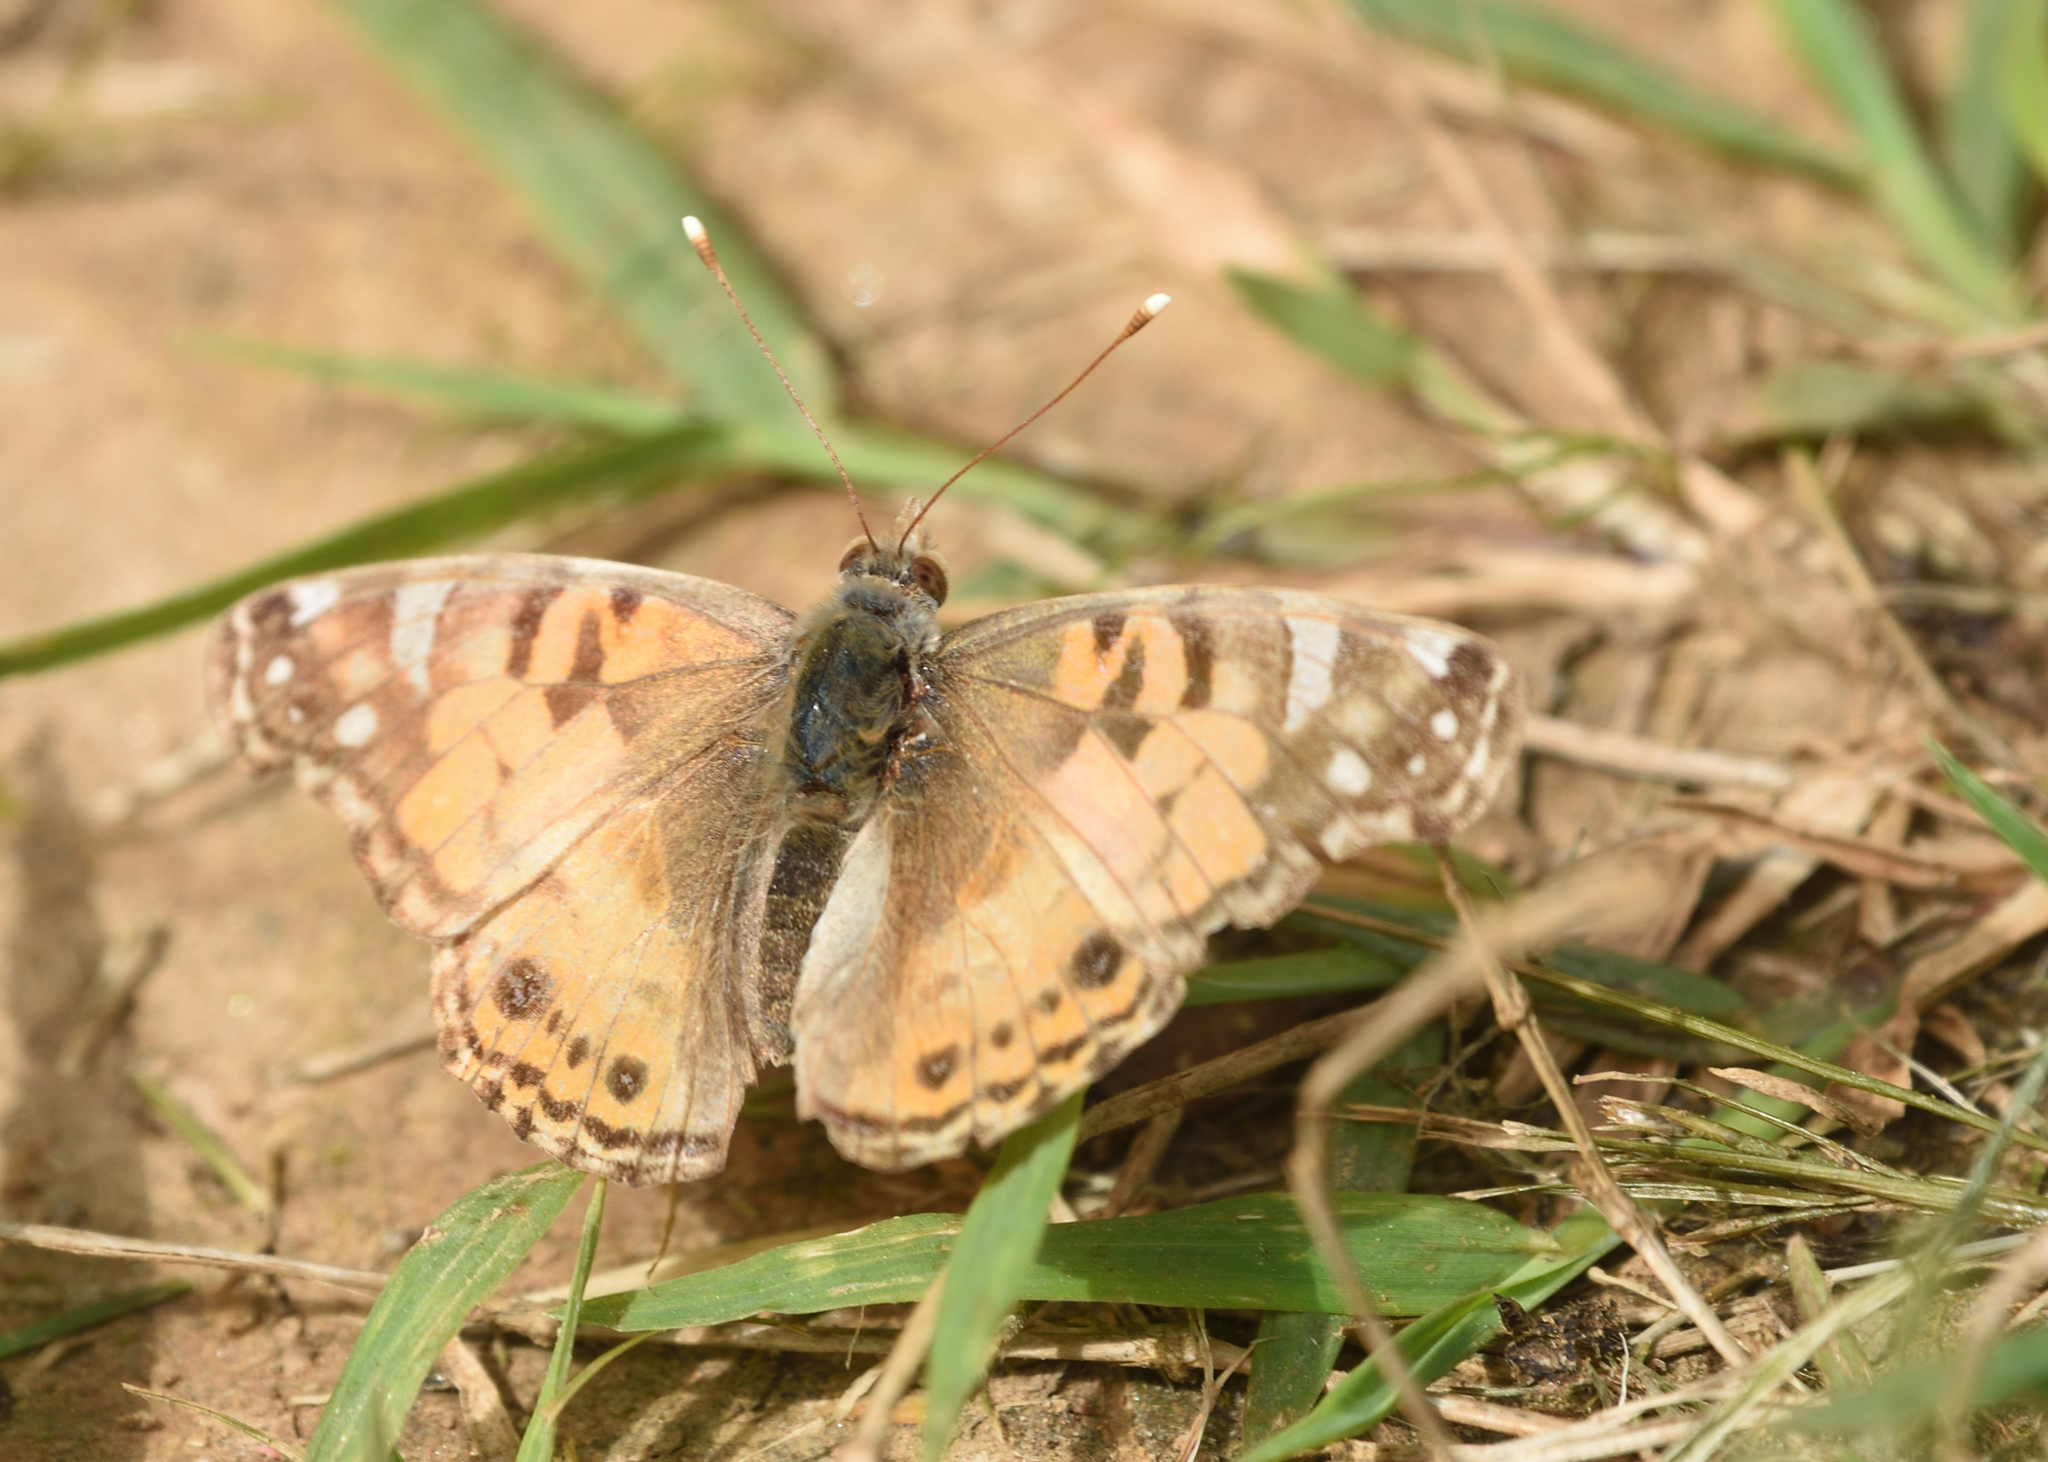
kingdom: Animalia
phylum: Arthropoda
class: Insecta
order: Lepidoptera
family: Nymphalidae
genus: Vanessa
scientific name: Vanessa virginiensis
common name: American lady
